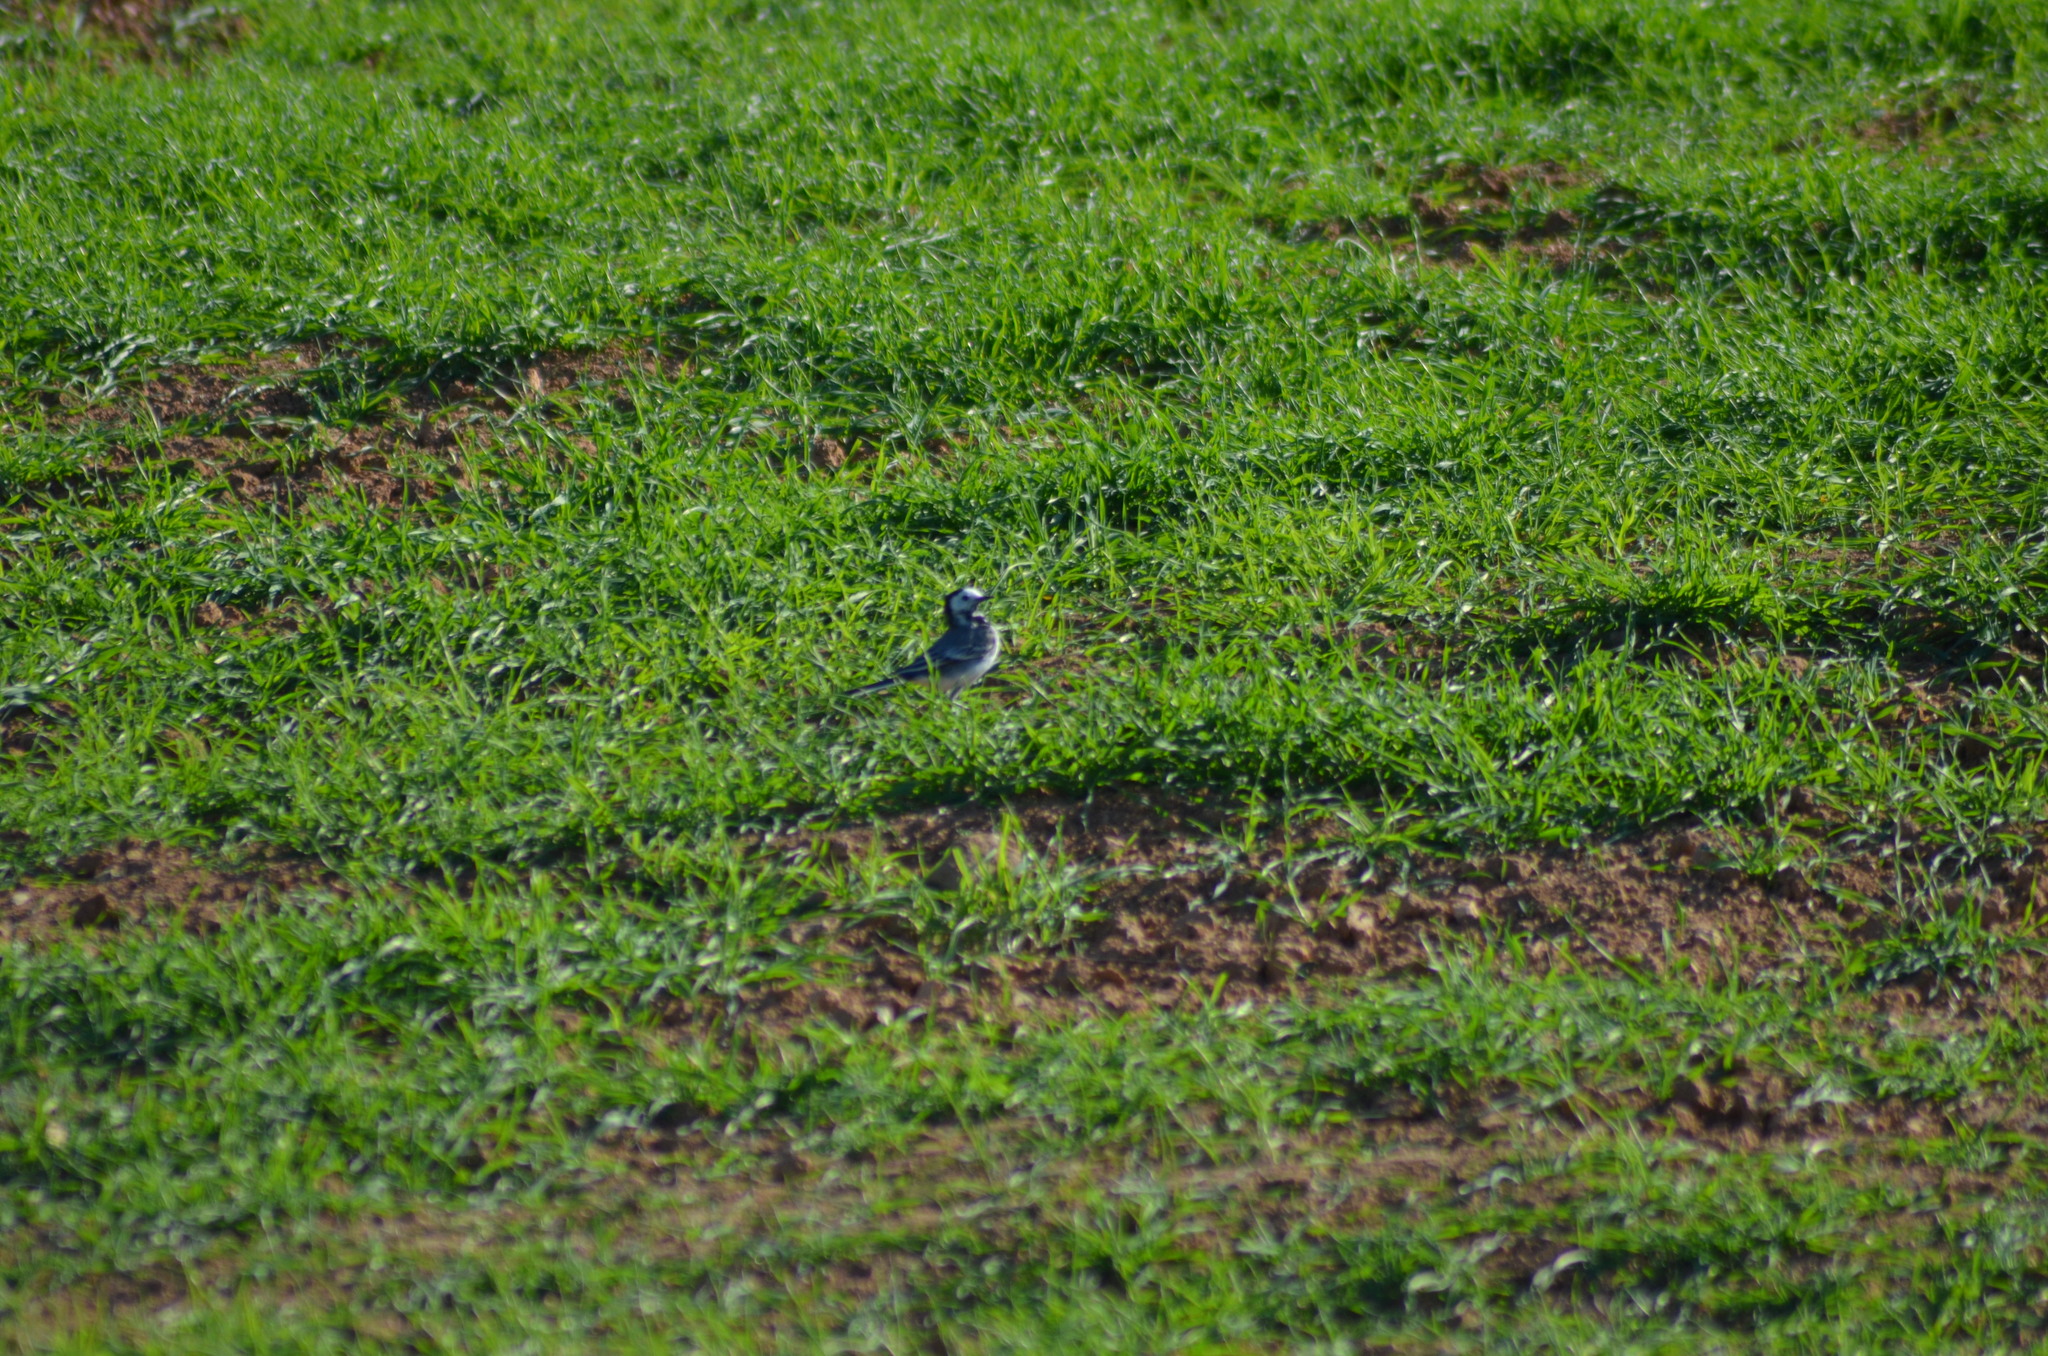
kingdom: Animalia
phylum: Chordata
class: Aves
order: Passeriformes
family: Motacillidae
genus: Motacilla
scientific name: Motacilla alba
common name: White wagtail
